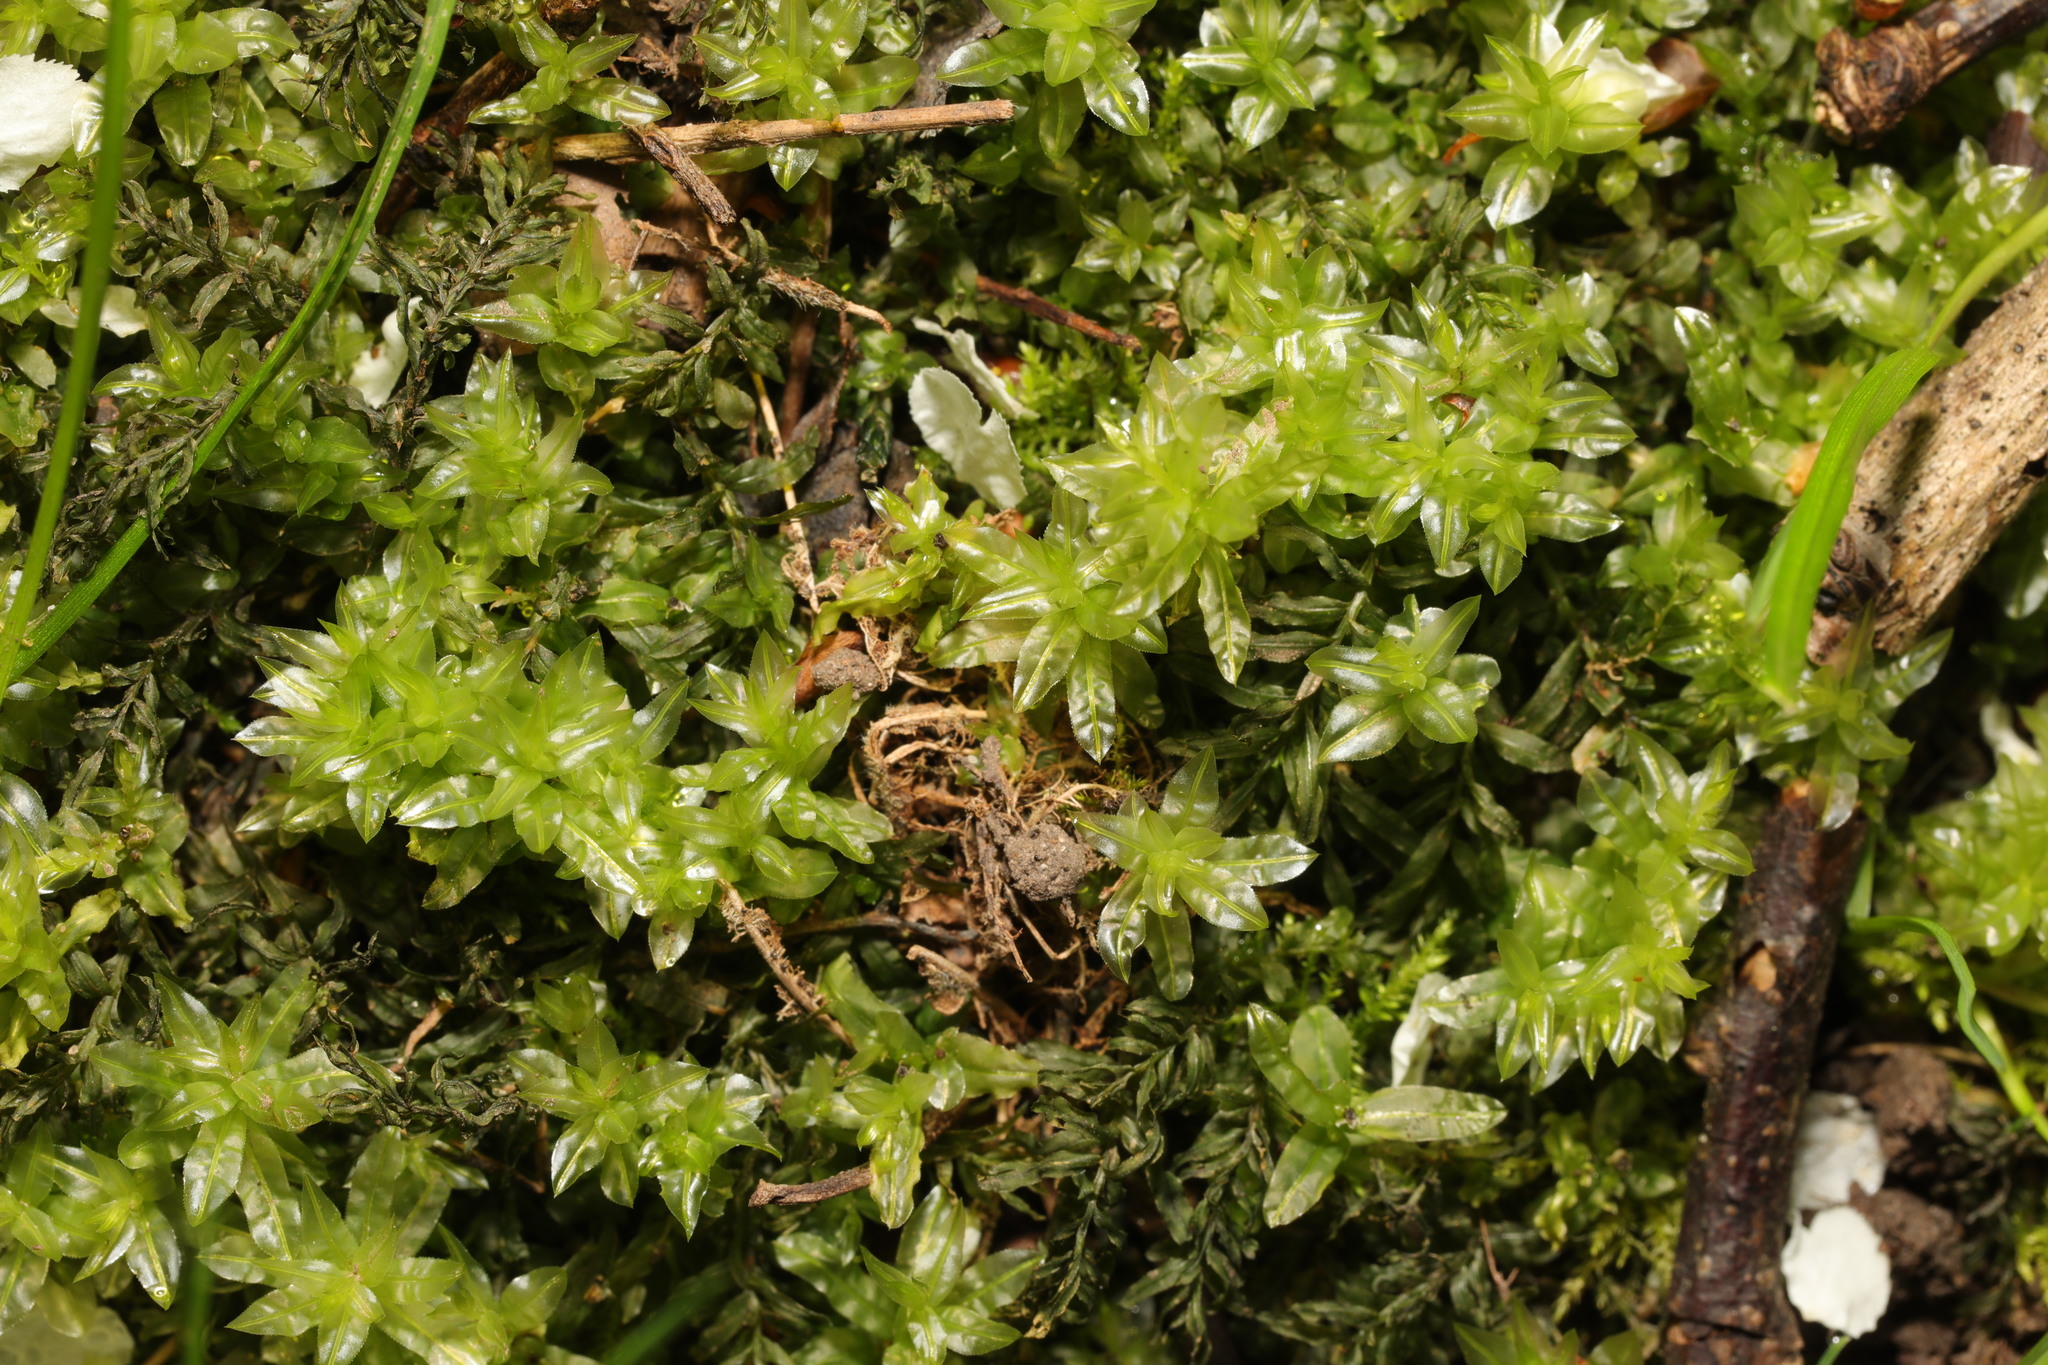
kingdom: Plantae
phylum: Bryophyta
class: Bryopsida
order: Bryales
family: Mniaceae
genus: Plagiomnium
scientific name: Plagiomnium undulatum
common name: Hart's-tongue thyme-moss
